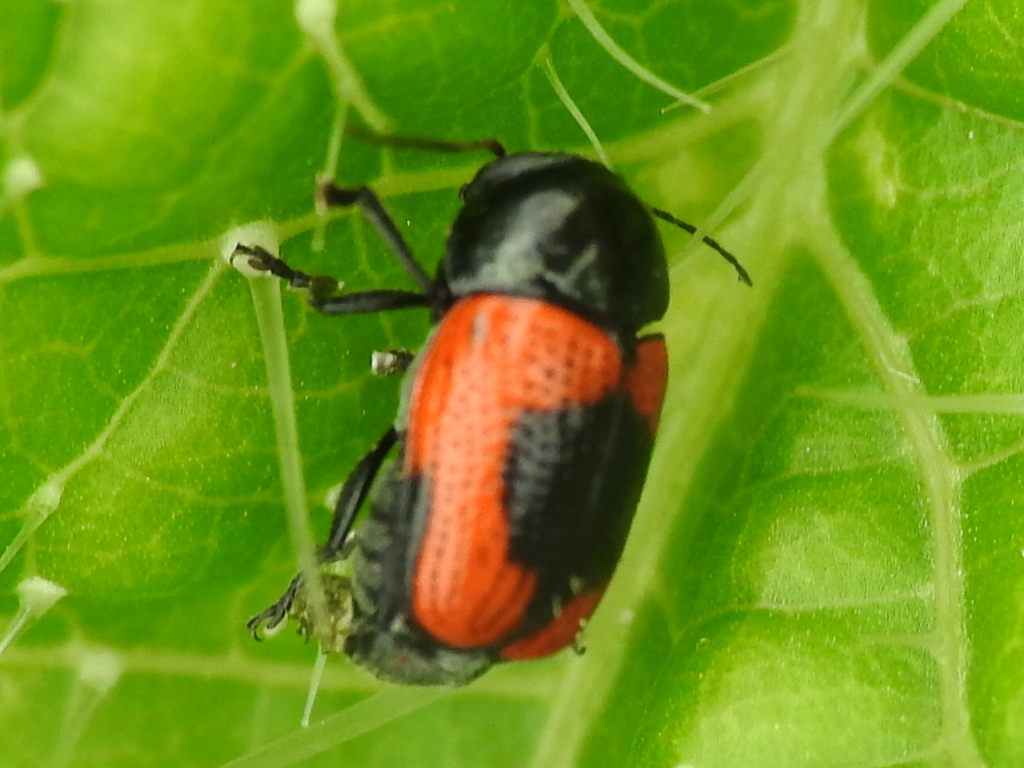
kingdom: Animalia
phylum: Arthropoda
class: Insecta
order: Coleoptera
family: Chrysomelidae
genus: Cryptocephalus
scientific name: Cryptocephalus notatus
